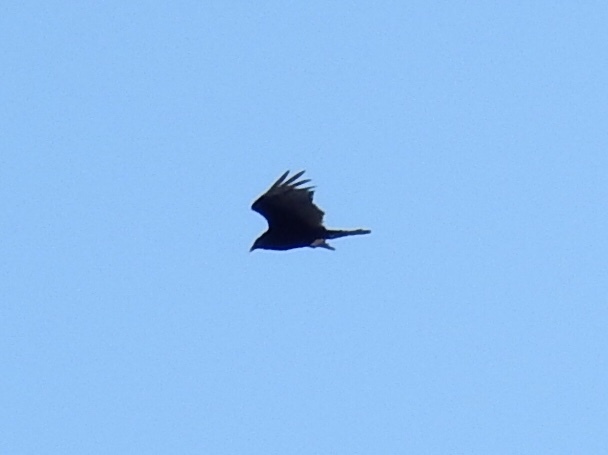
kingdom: Animalia
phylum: Chordata
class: Aves
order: Accipitriformes
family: Cathartidae
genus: Cathartes
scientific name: Cathartes aura
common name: Turkey vulture
